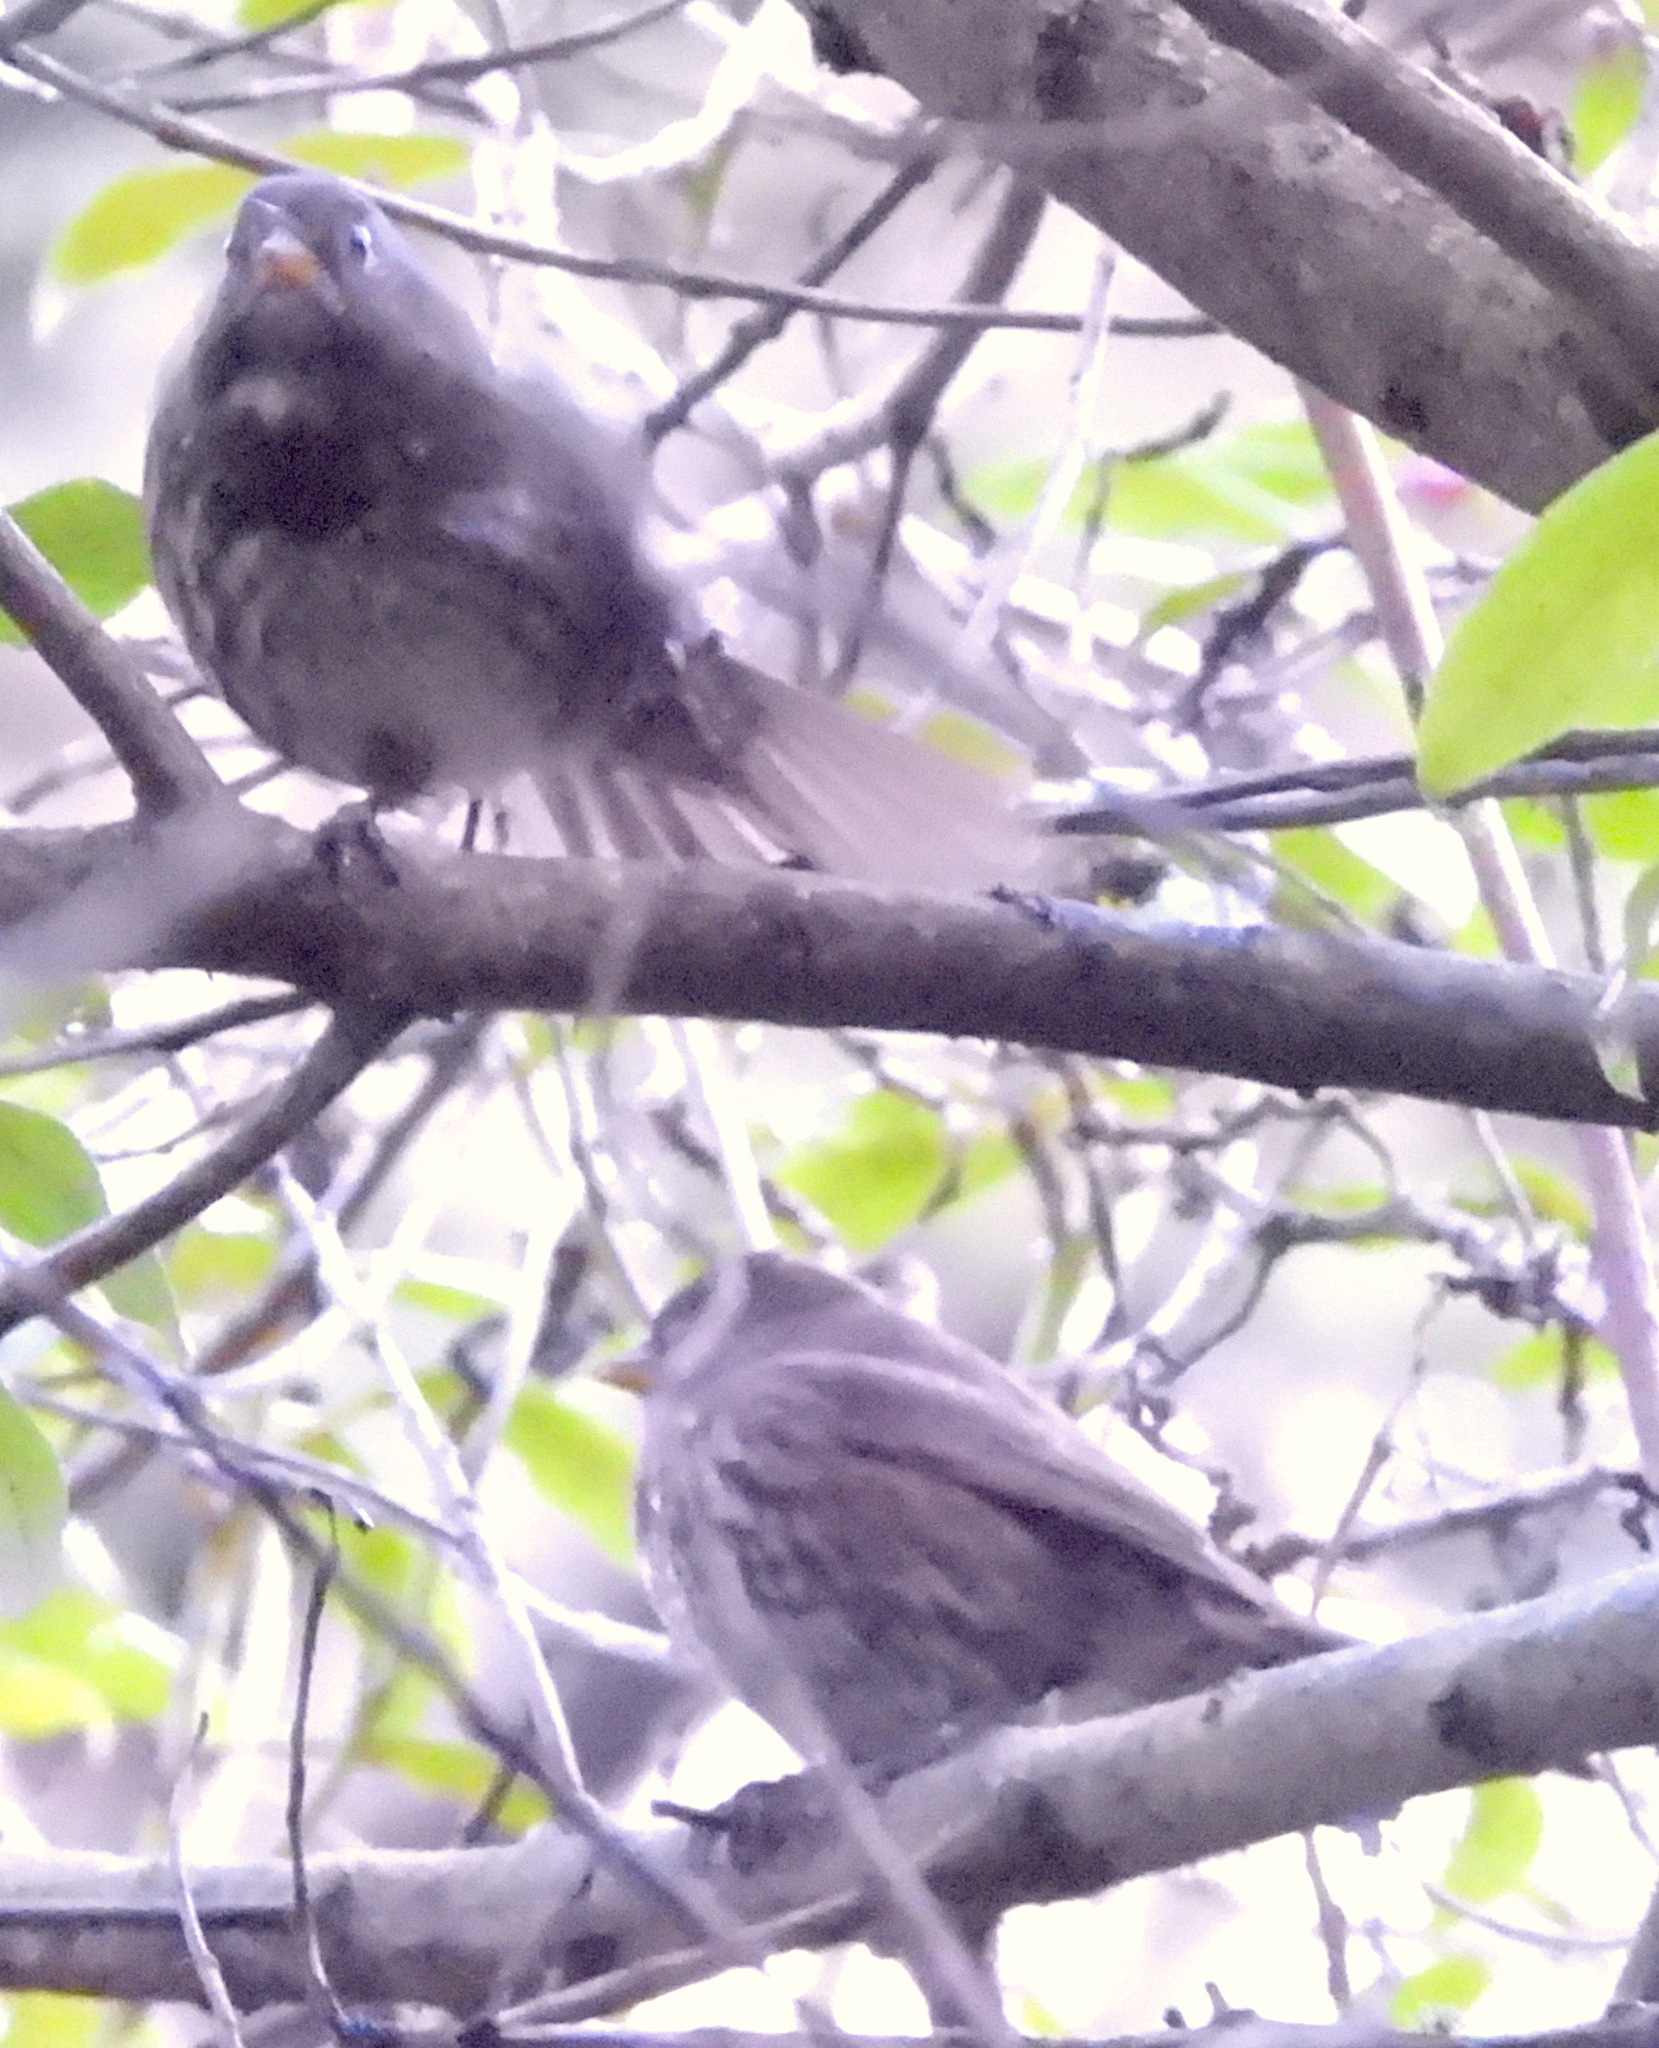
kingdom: Animalia
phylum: Chordata
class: Aves
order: Passeriformes
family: Passerellidae
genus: Passerella
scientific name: Passerella iliaca
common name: Fox sparrow
